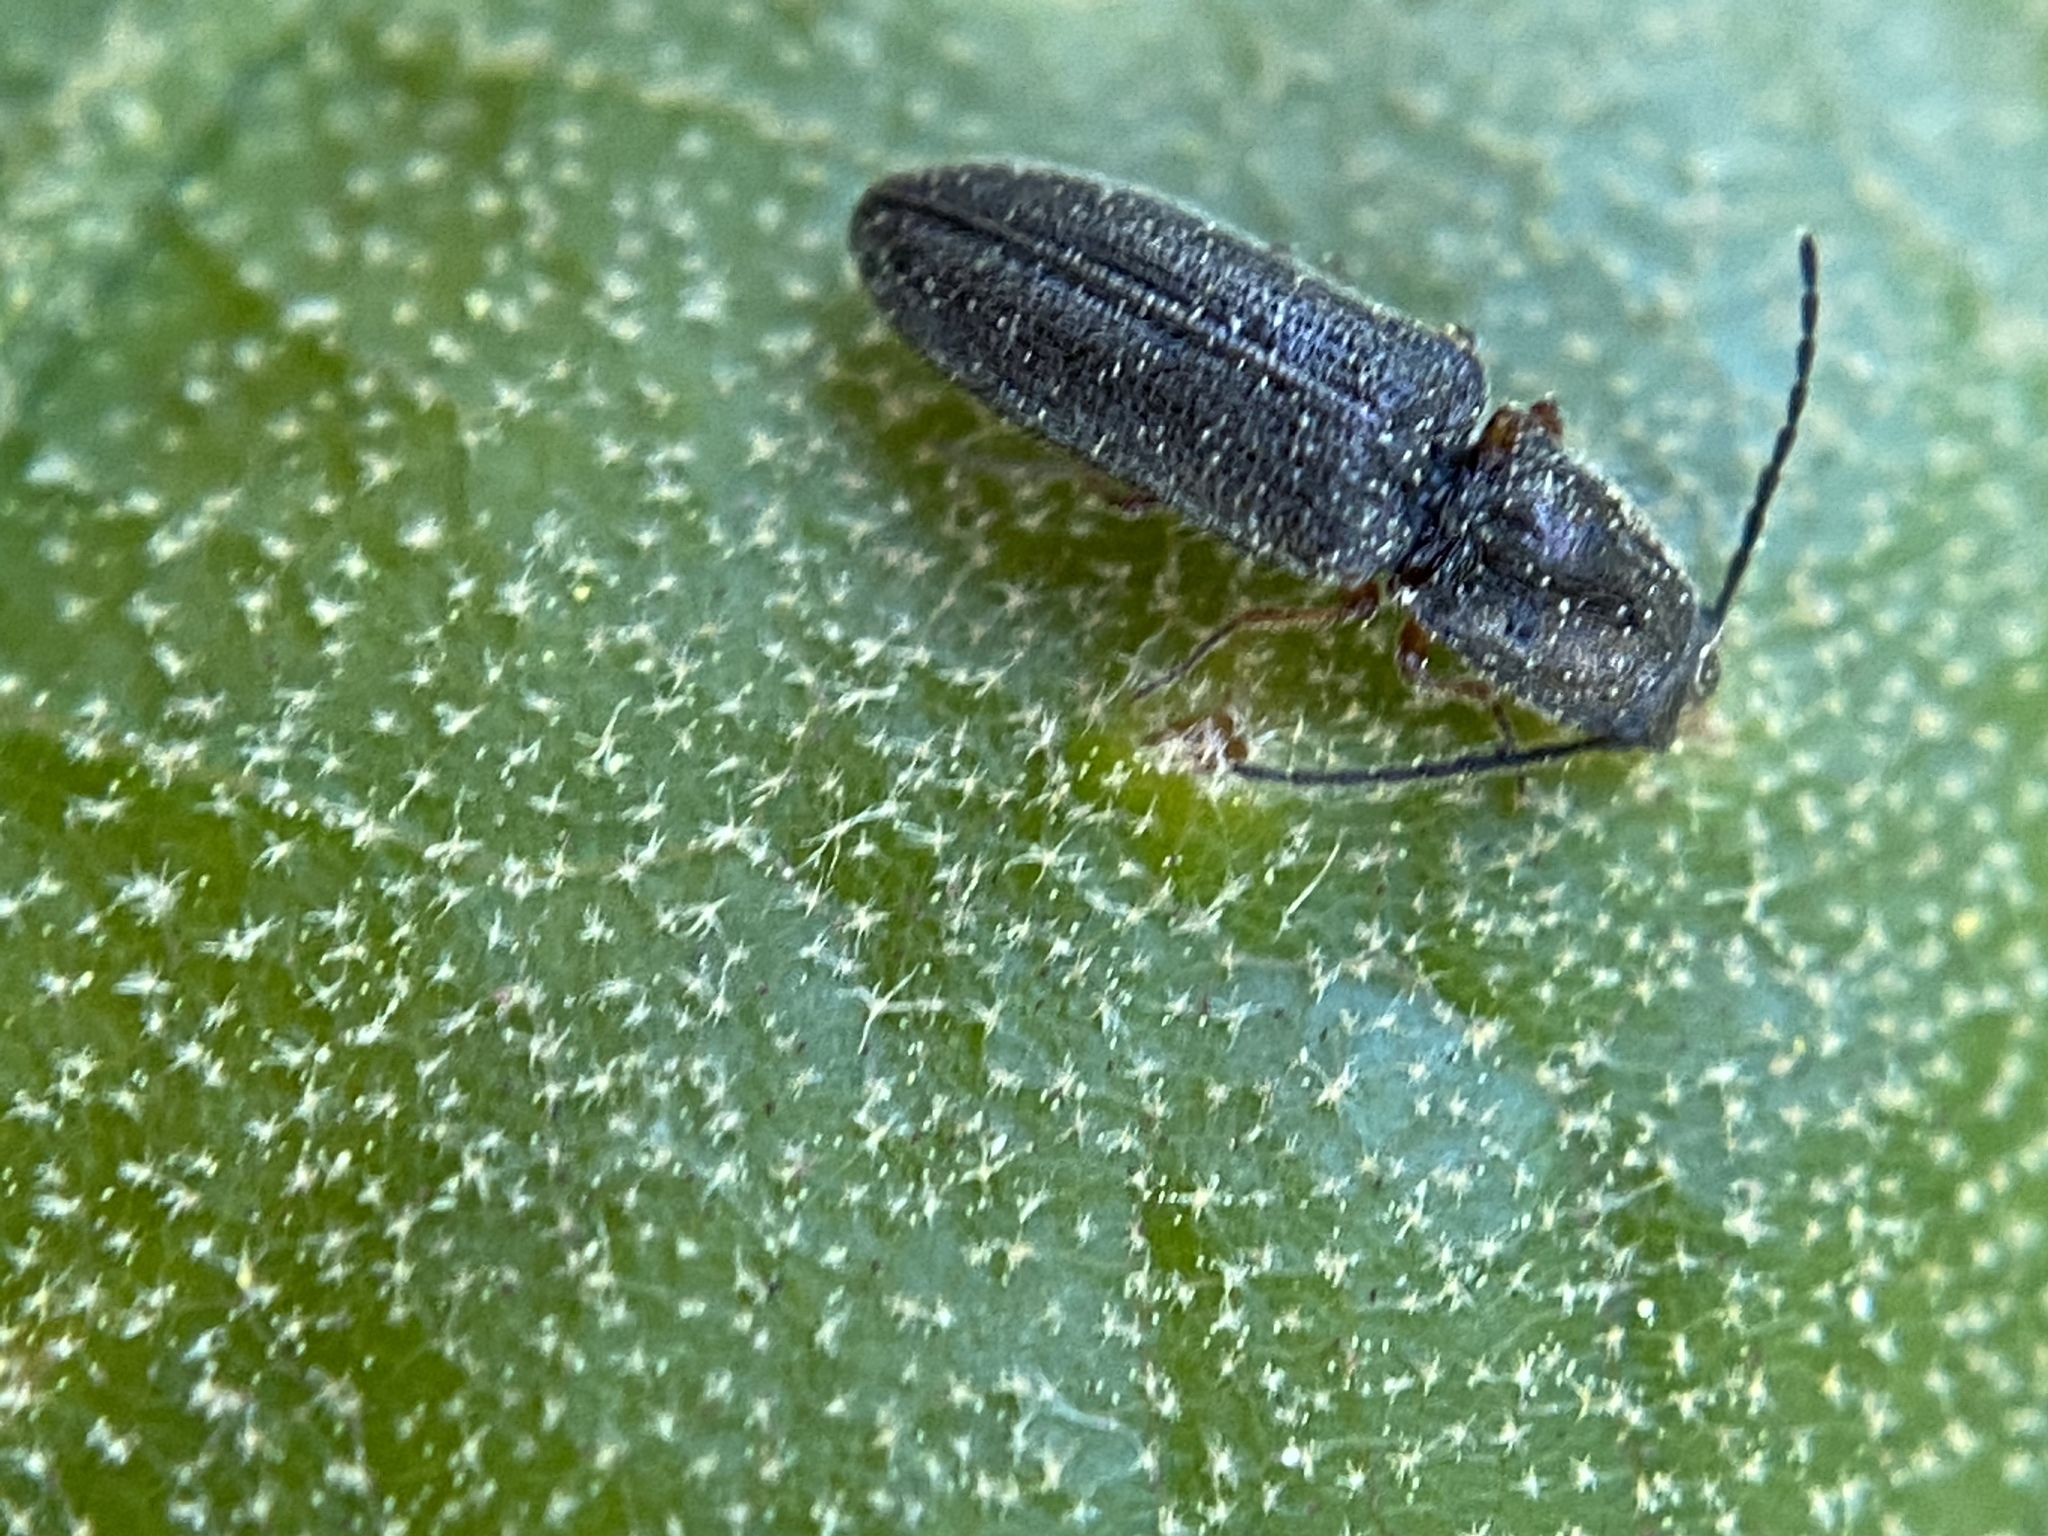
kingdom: Animalia
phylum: Arthropoda
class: Insecta
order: Coleoptera
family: Elateridae
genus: Limonius
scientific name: Limonius basilaris
